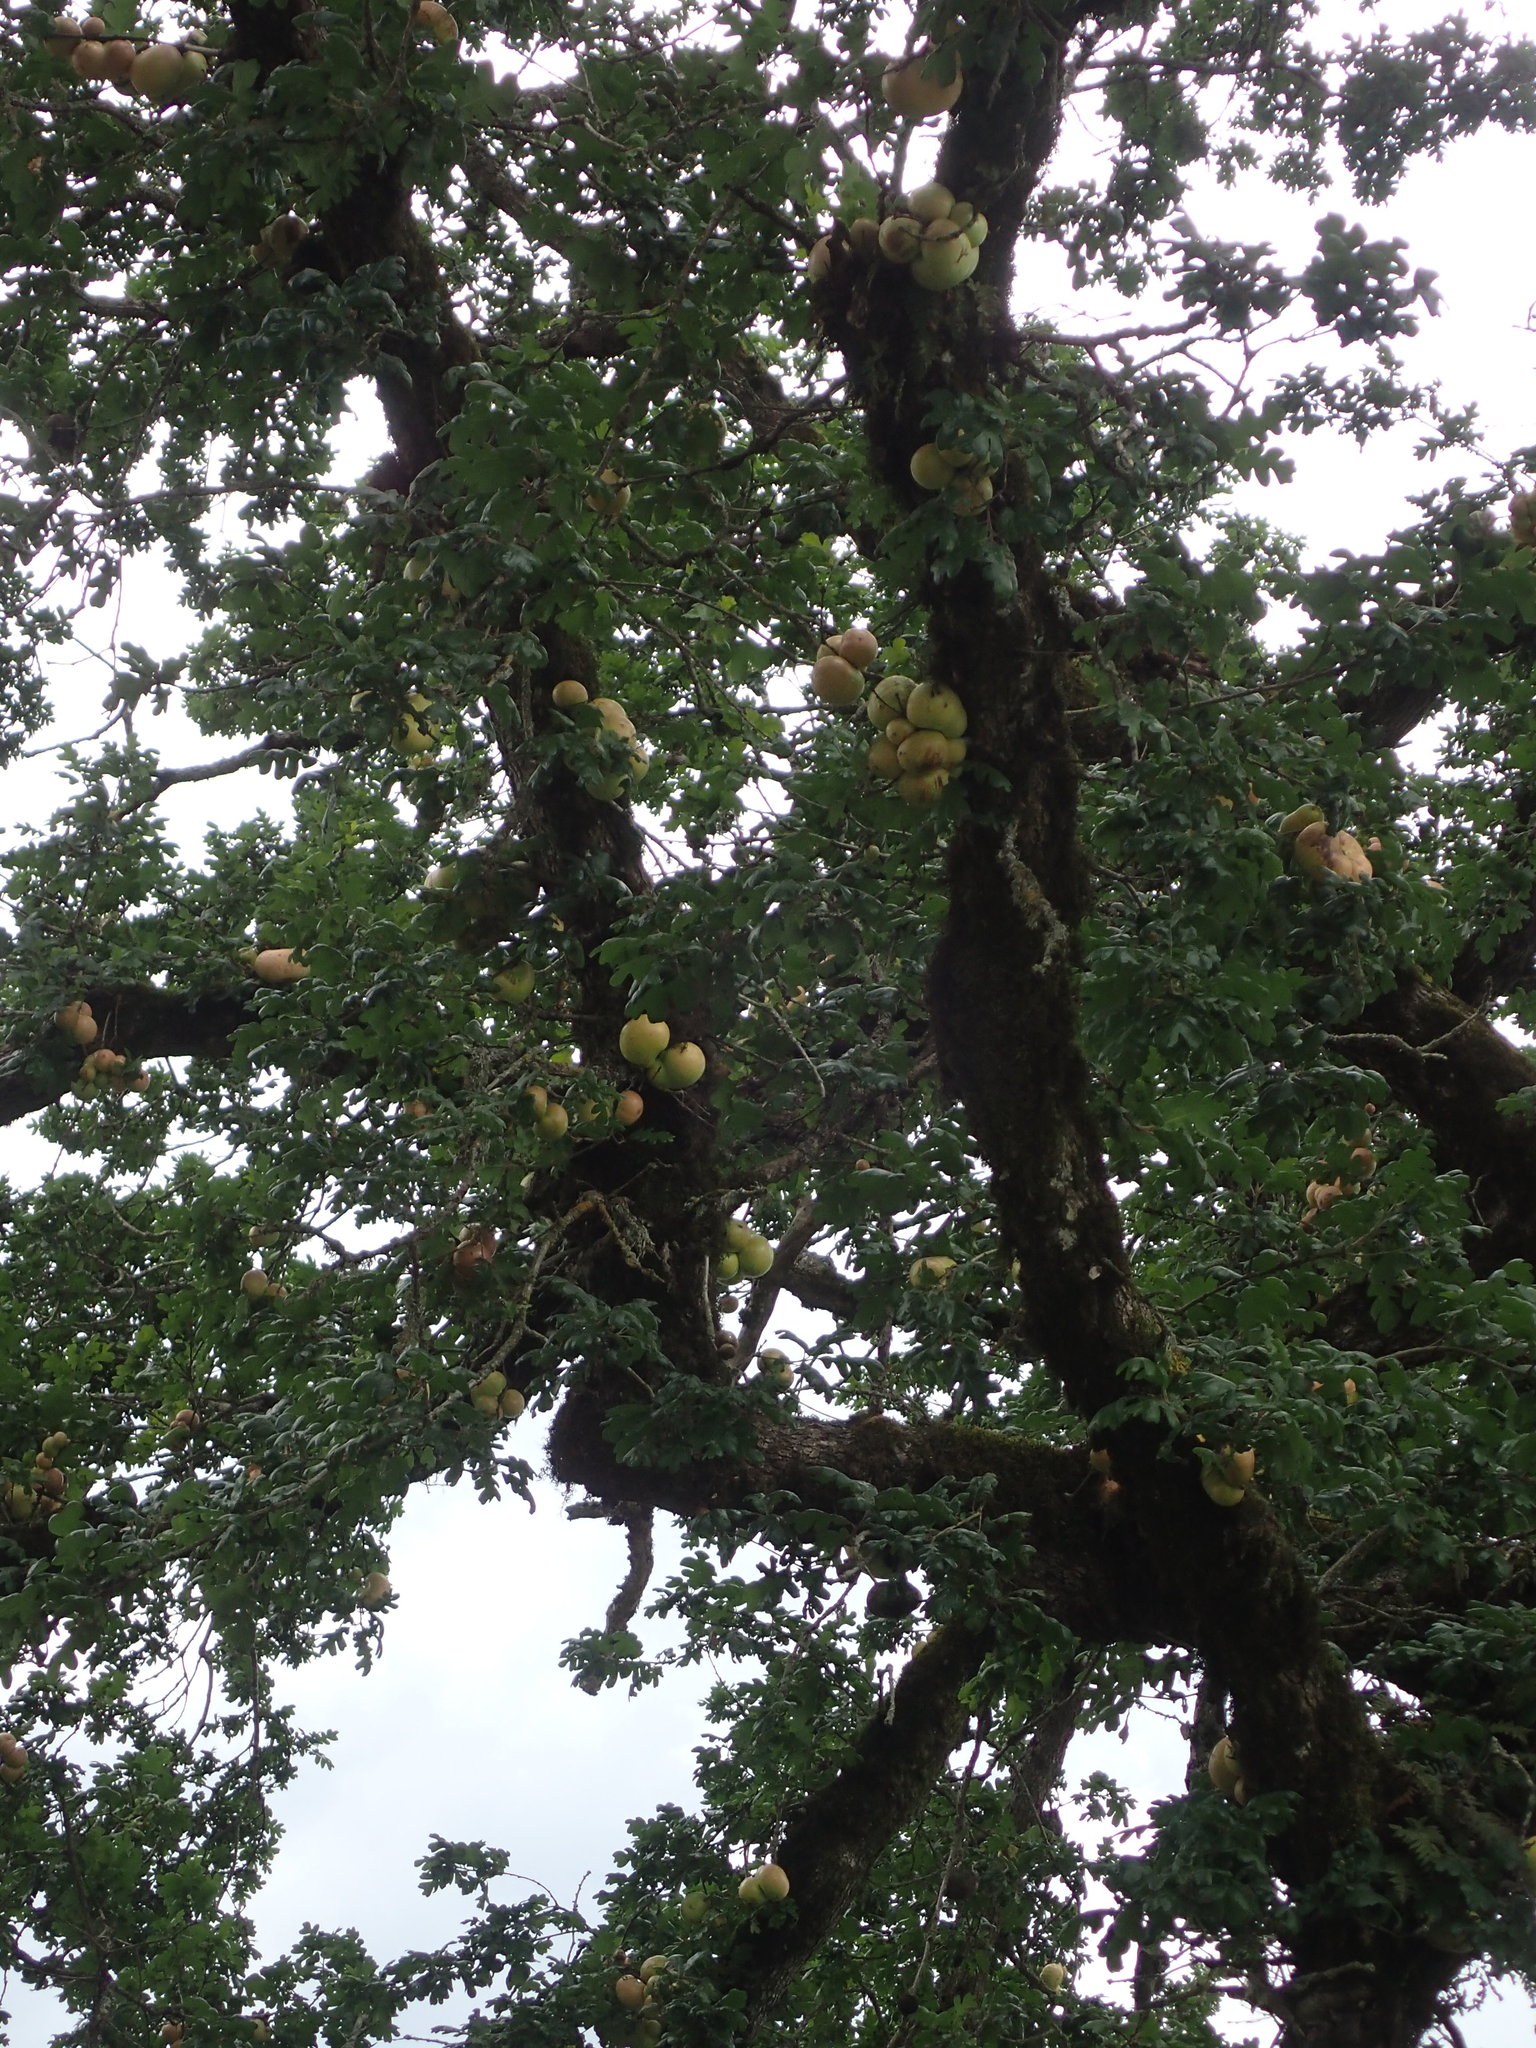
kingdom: Plantae
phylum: Tracheophyta
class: Magnoliopsida
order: Fagales
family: Fagaceae
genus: Quercus
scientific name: Quercus garryana
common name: Garry oak
